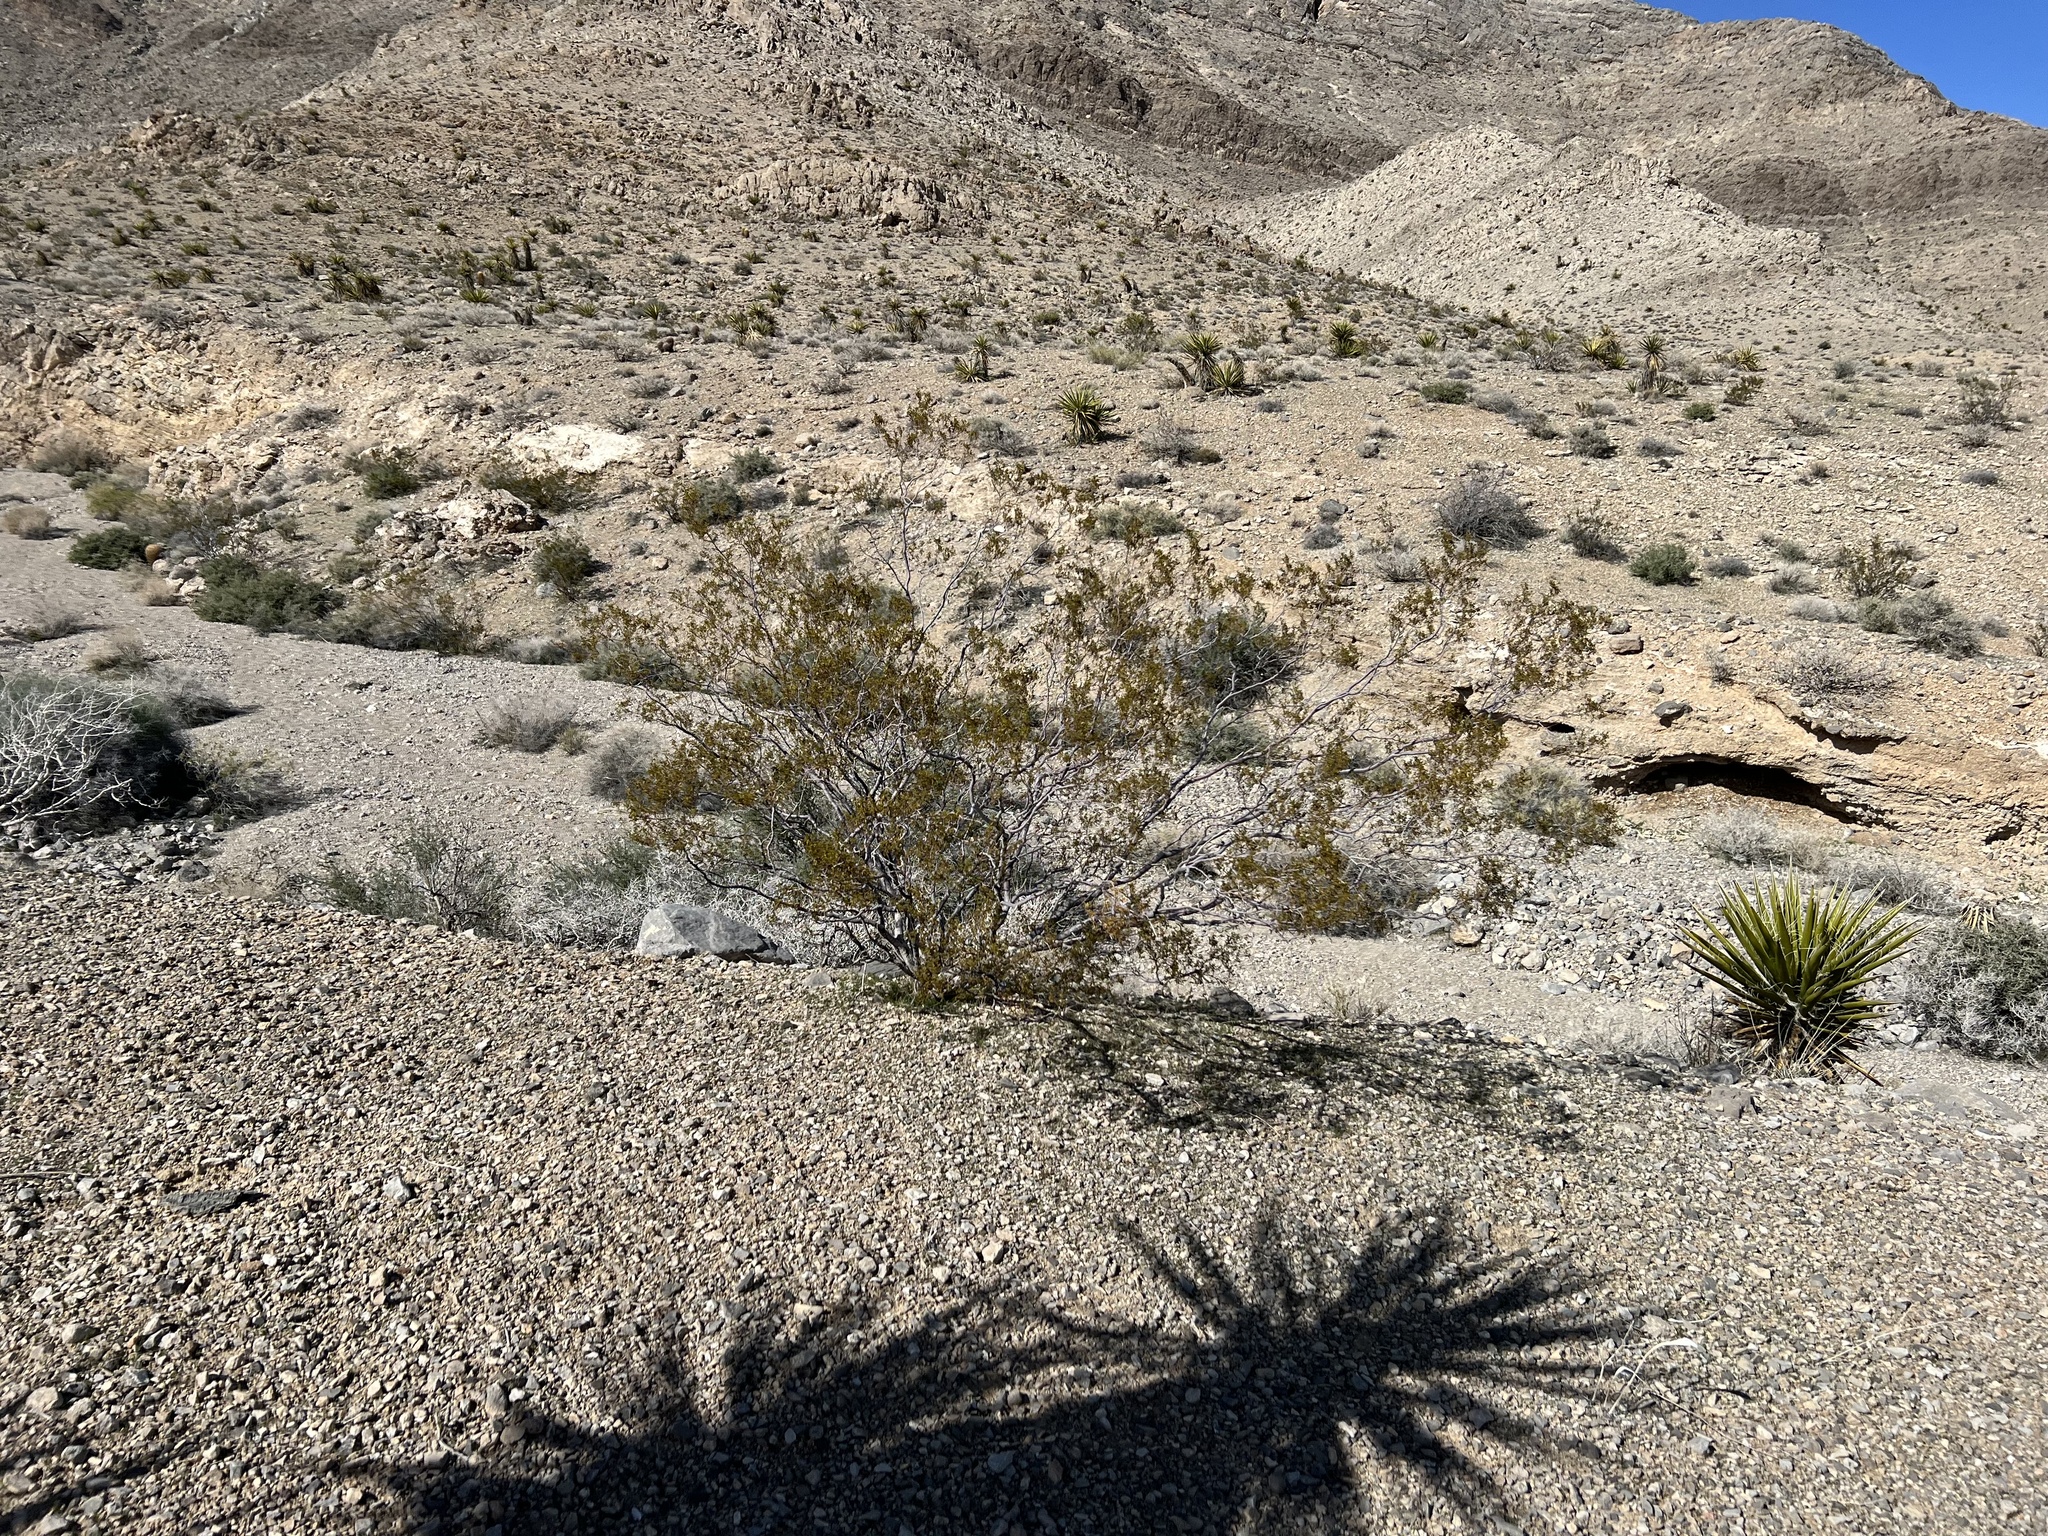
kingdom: Plantae
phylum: Tracheophyta
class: Magnoliopsida
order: Zygophyllales
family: Zygophyllaceae
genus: Larrea
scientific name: Larrea tridentata
